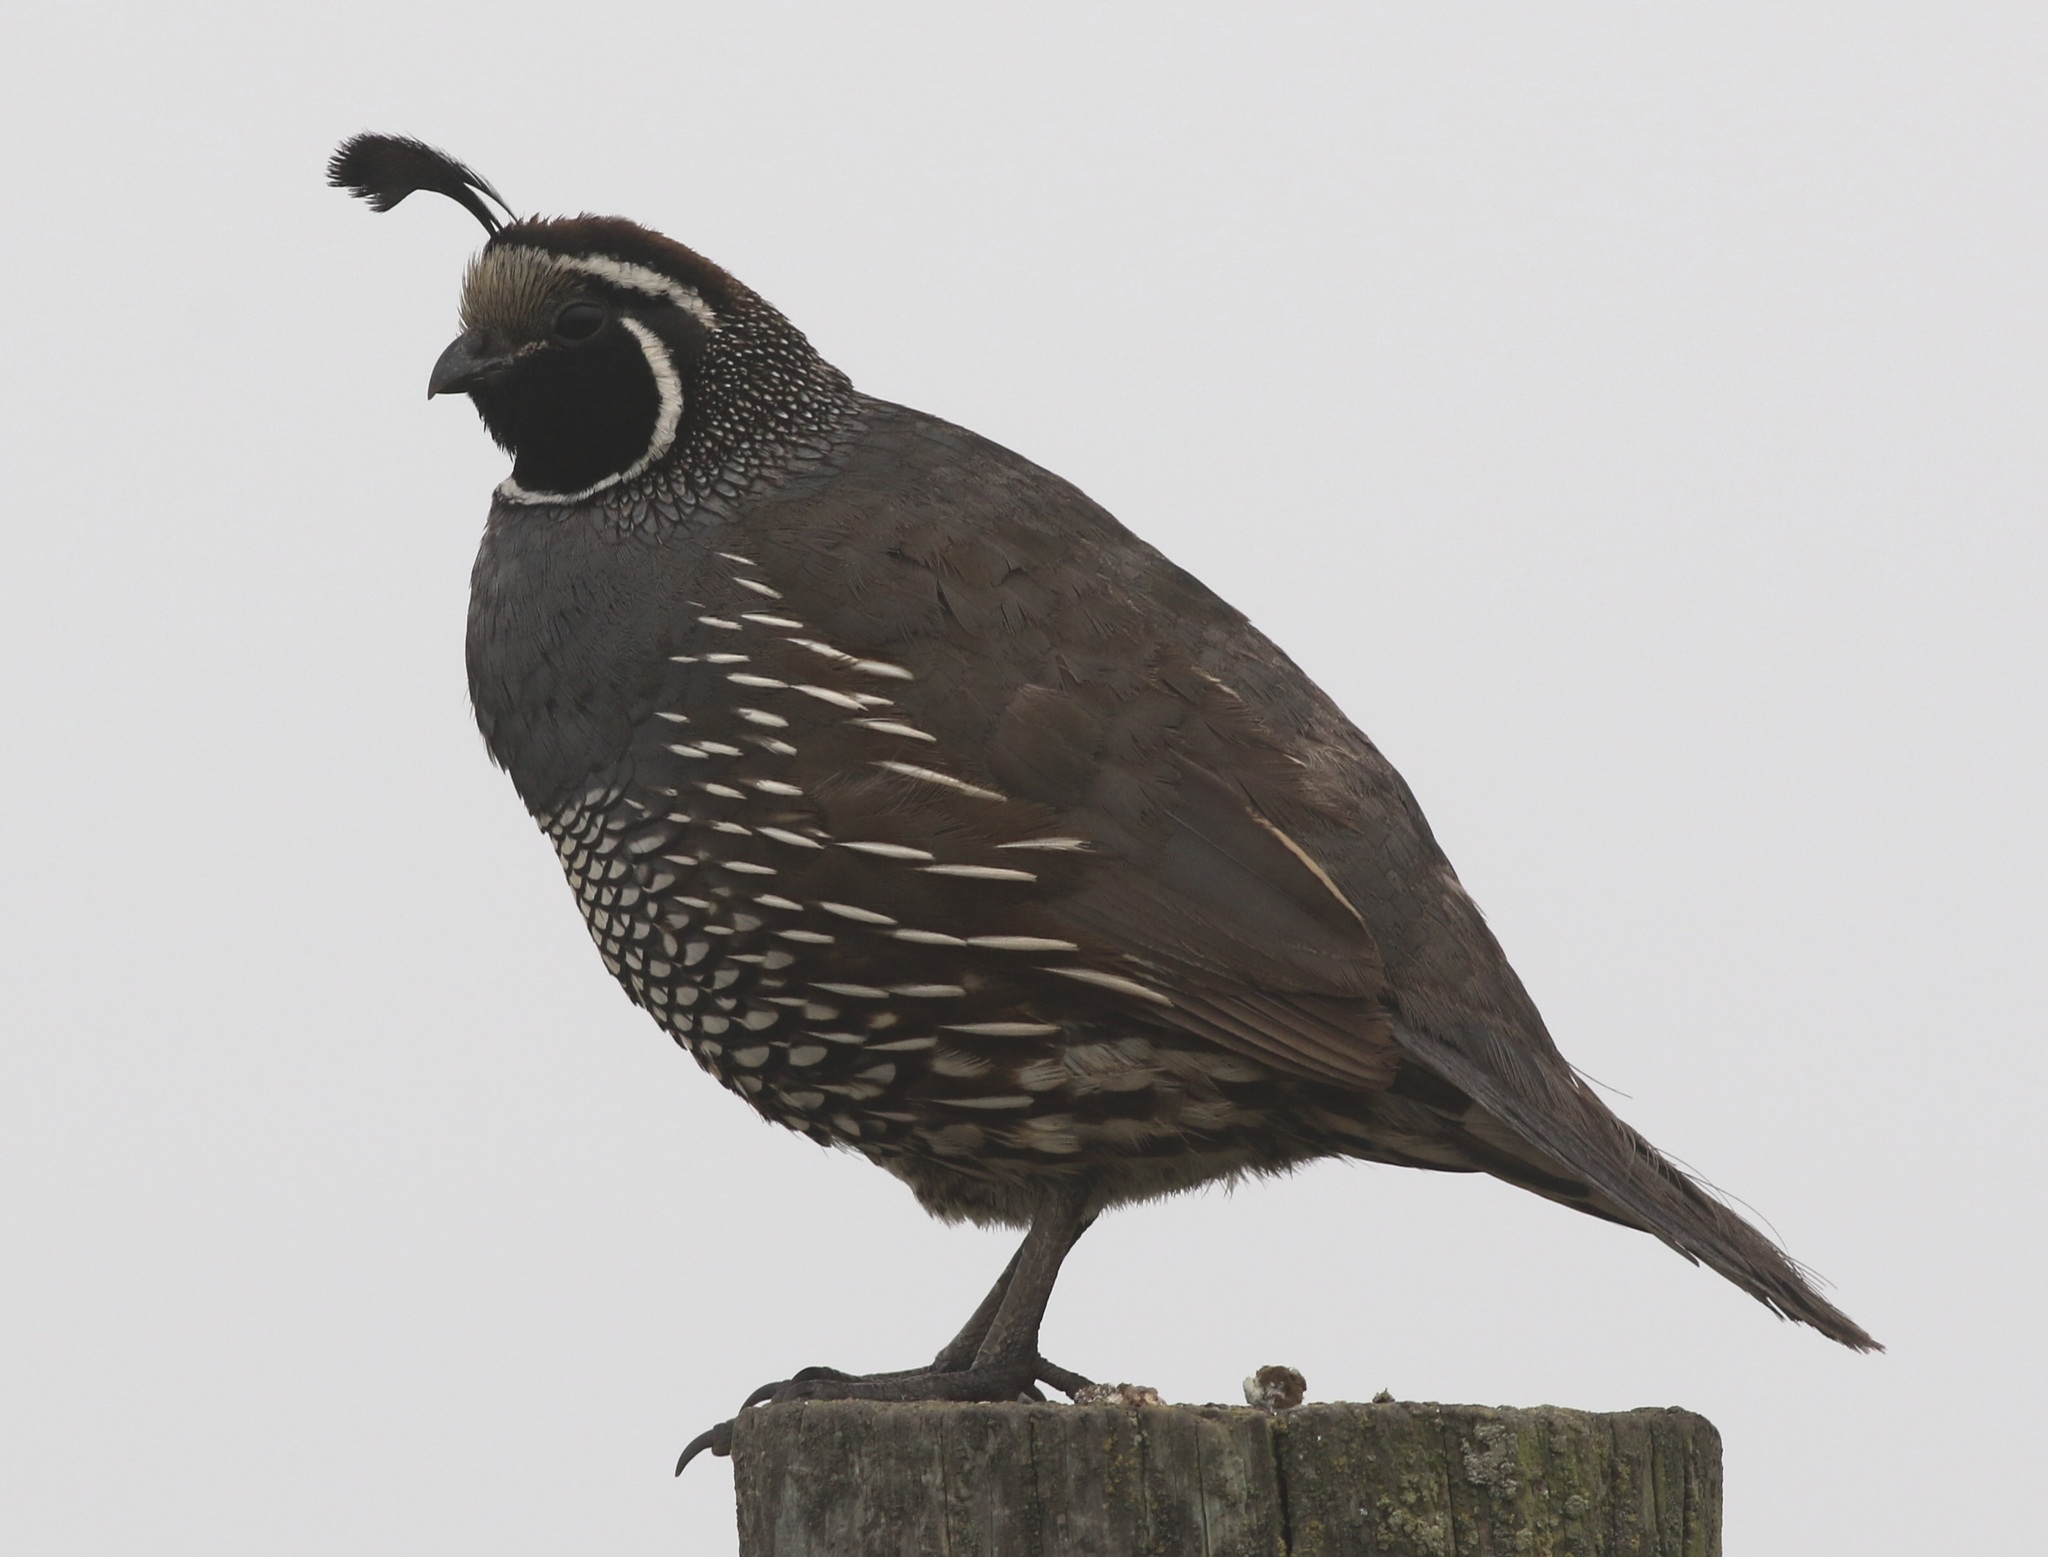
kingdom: Animalia
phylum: Chordata
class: Aves
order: Galliformes
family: Odontophoridae
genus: Callipepla
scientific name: Callipepla californica
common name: California quail
